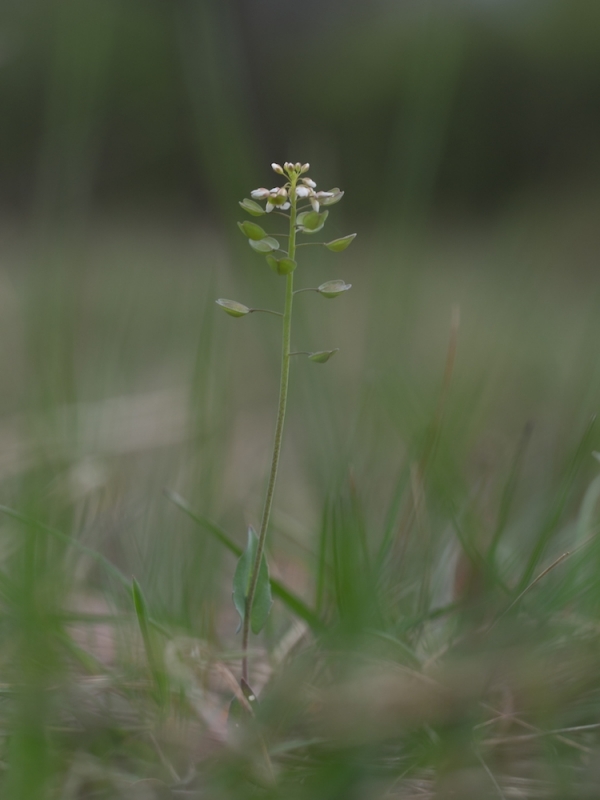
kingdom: Plantae
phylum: Tracheophyta
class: Magnoliopsida
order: Brassicales
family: Brassicaceae
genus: Noccaea
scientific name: Noccaea perfoliata
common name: Perfoliate pennycress
